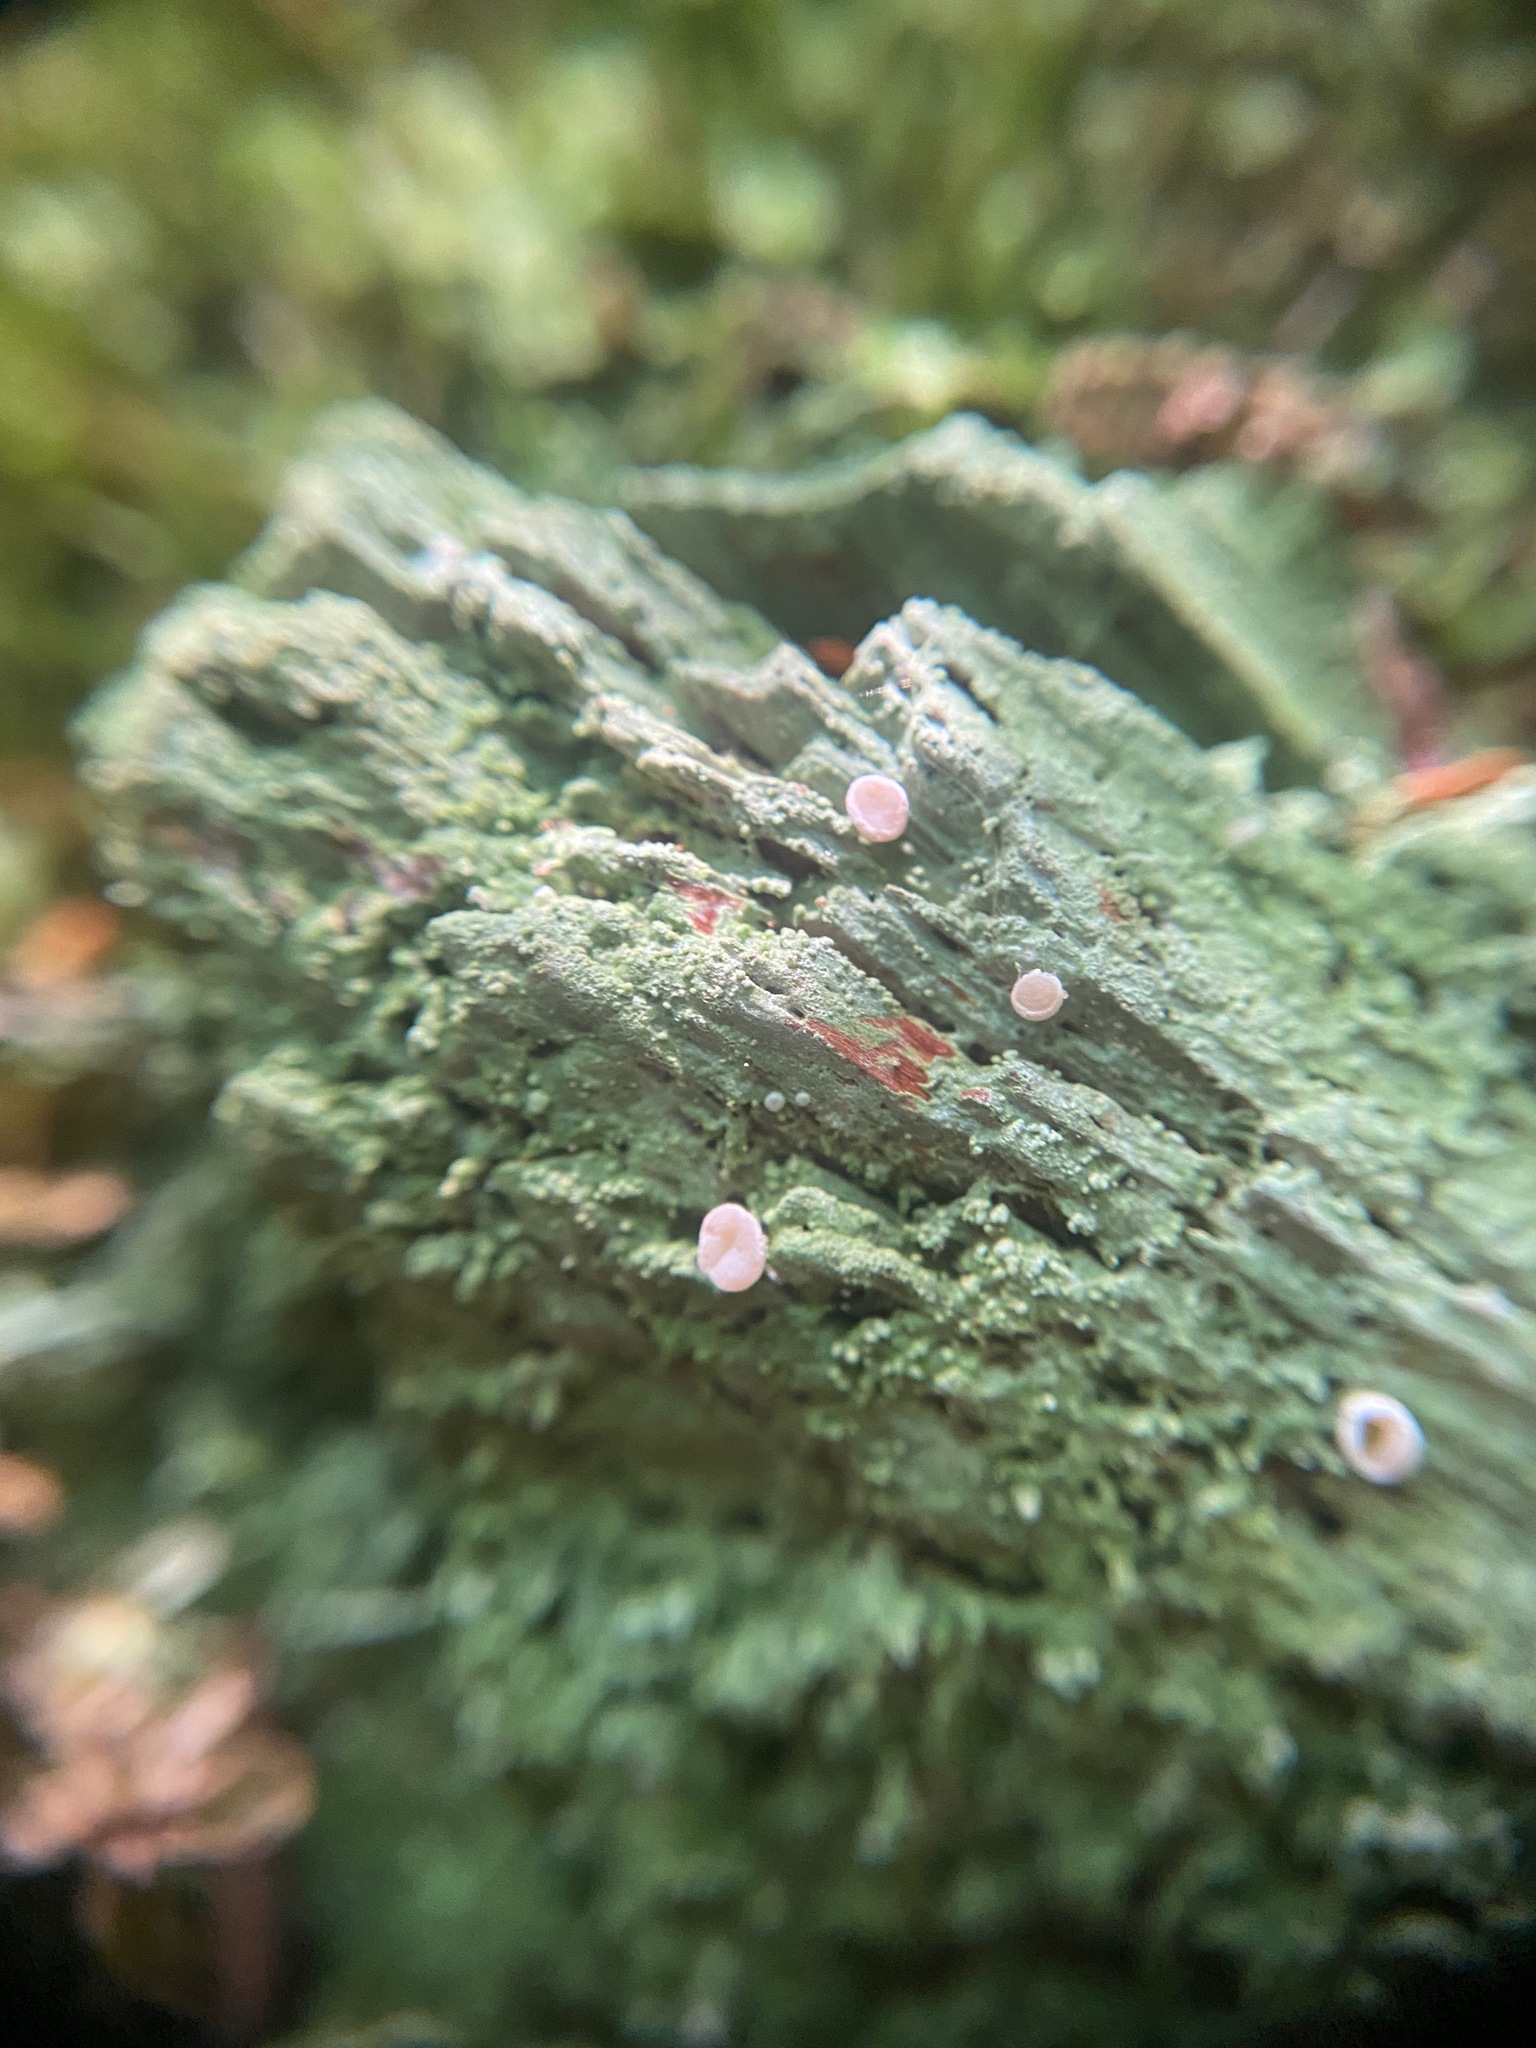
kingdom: Fungi
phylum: Ascomycota
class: Lecanoromycetes
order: Pertusariales
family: Icmadophilaceae
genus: Icmadophila
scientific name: Icmadophila ericetorum
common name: Candy lichen
